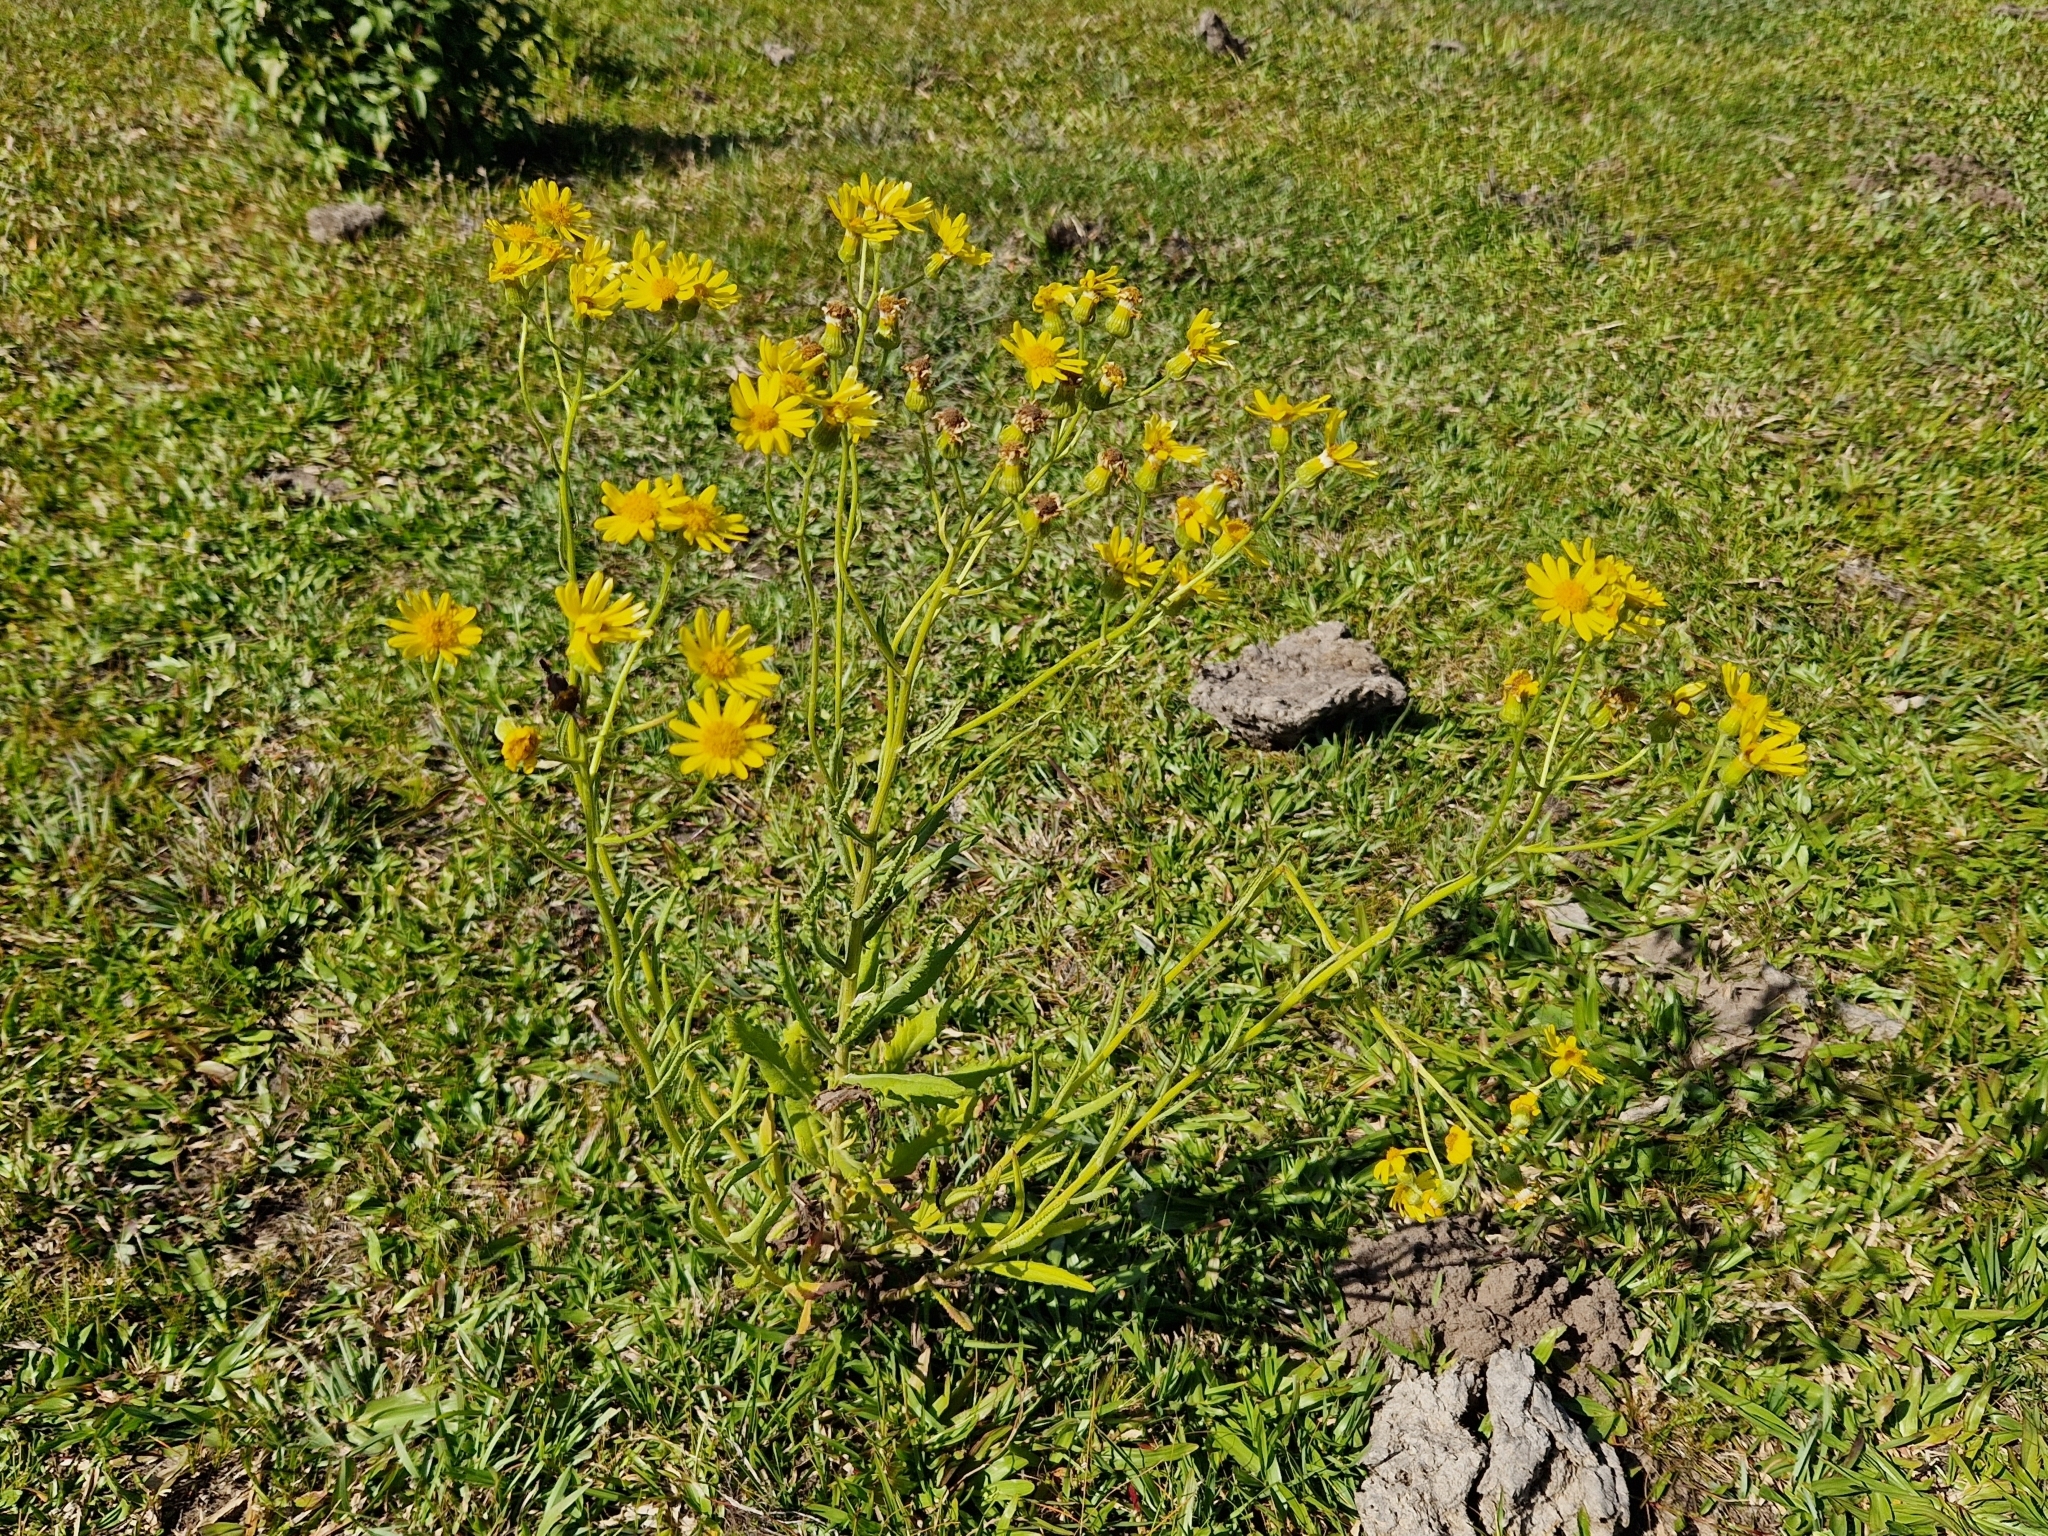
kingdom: Plantae
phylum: Tracheophyta
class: Magnoliopsida
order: Asterales
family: Asteraceae
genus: Senecio
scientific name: Senecio pterophorus
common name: Shoddy ragwort
